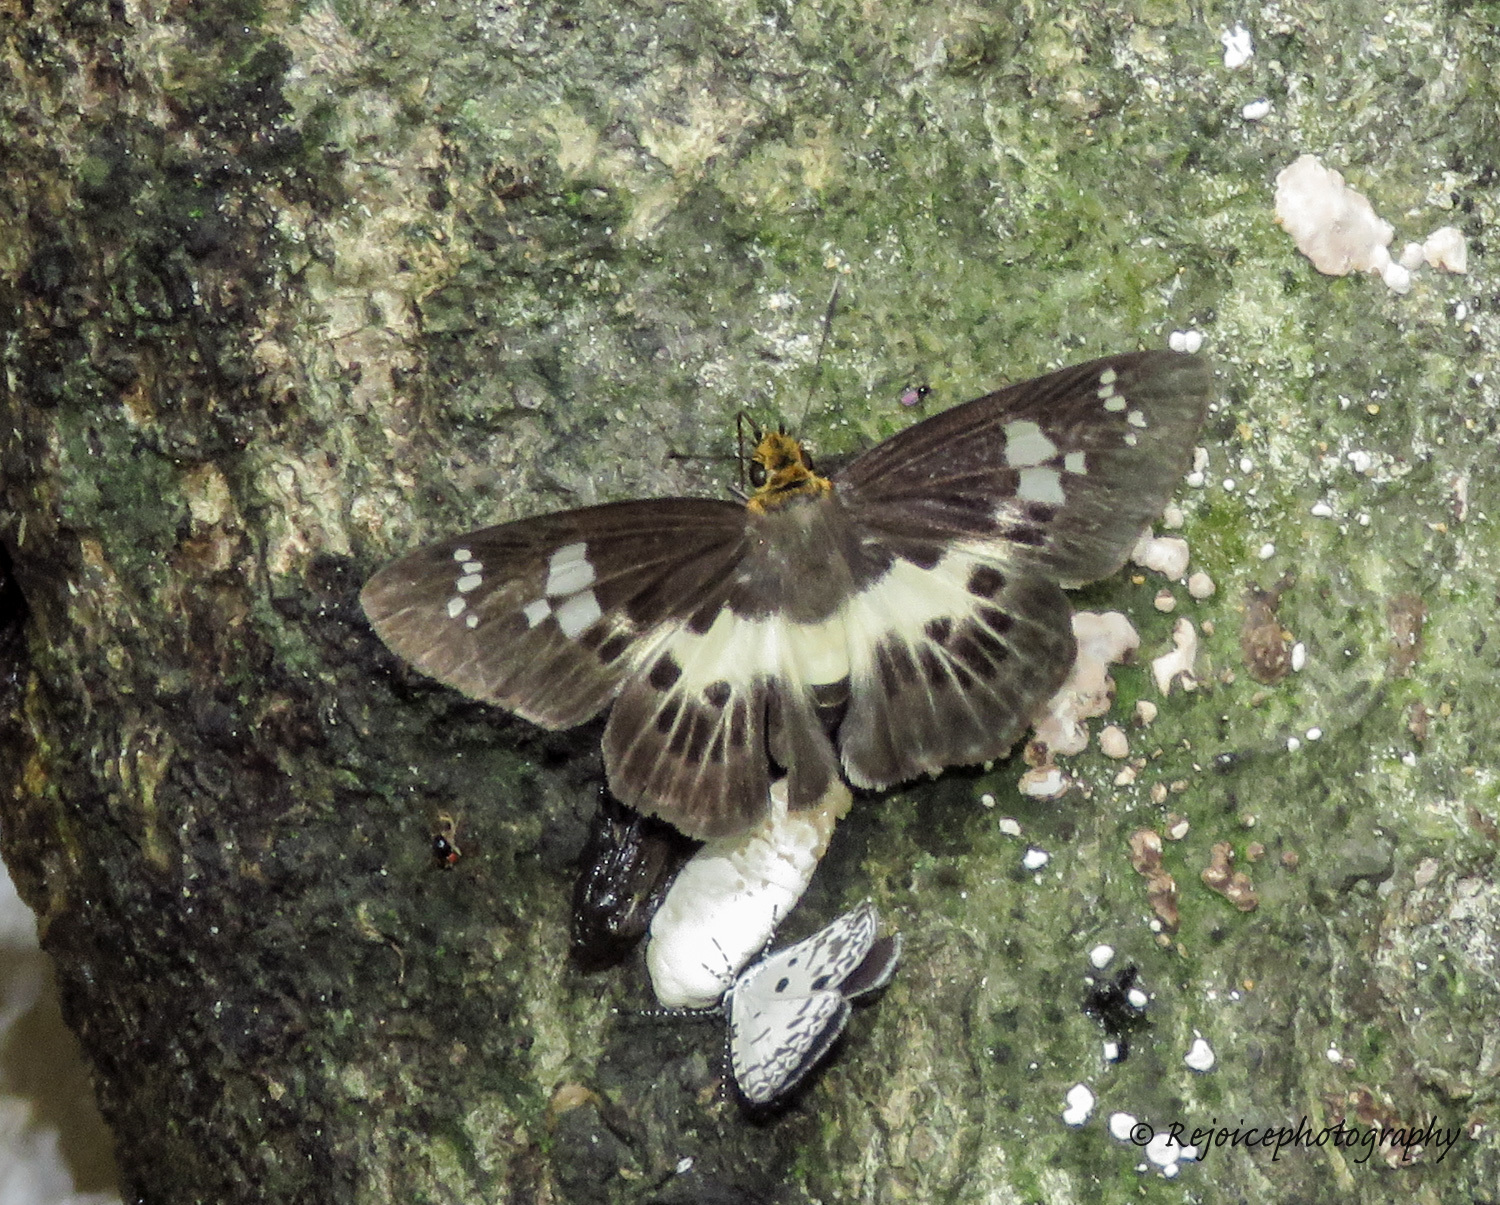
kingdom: Animalia
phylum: Arthropoda
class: Insecta
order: Lepidoptera
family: Hesperiidae
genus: Daimio
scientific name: Daimio
